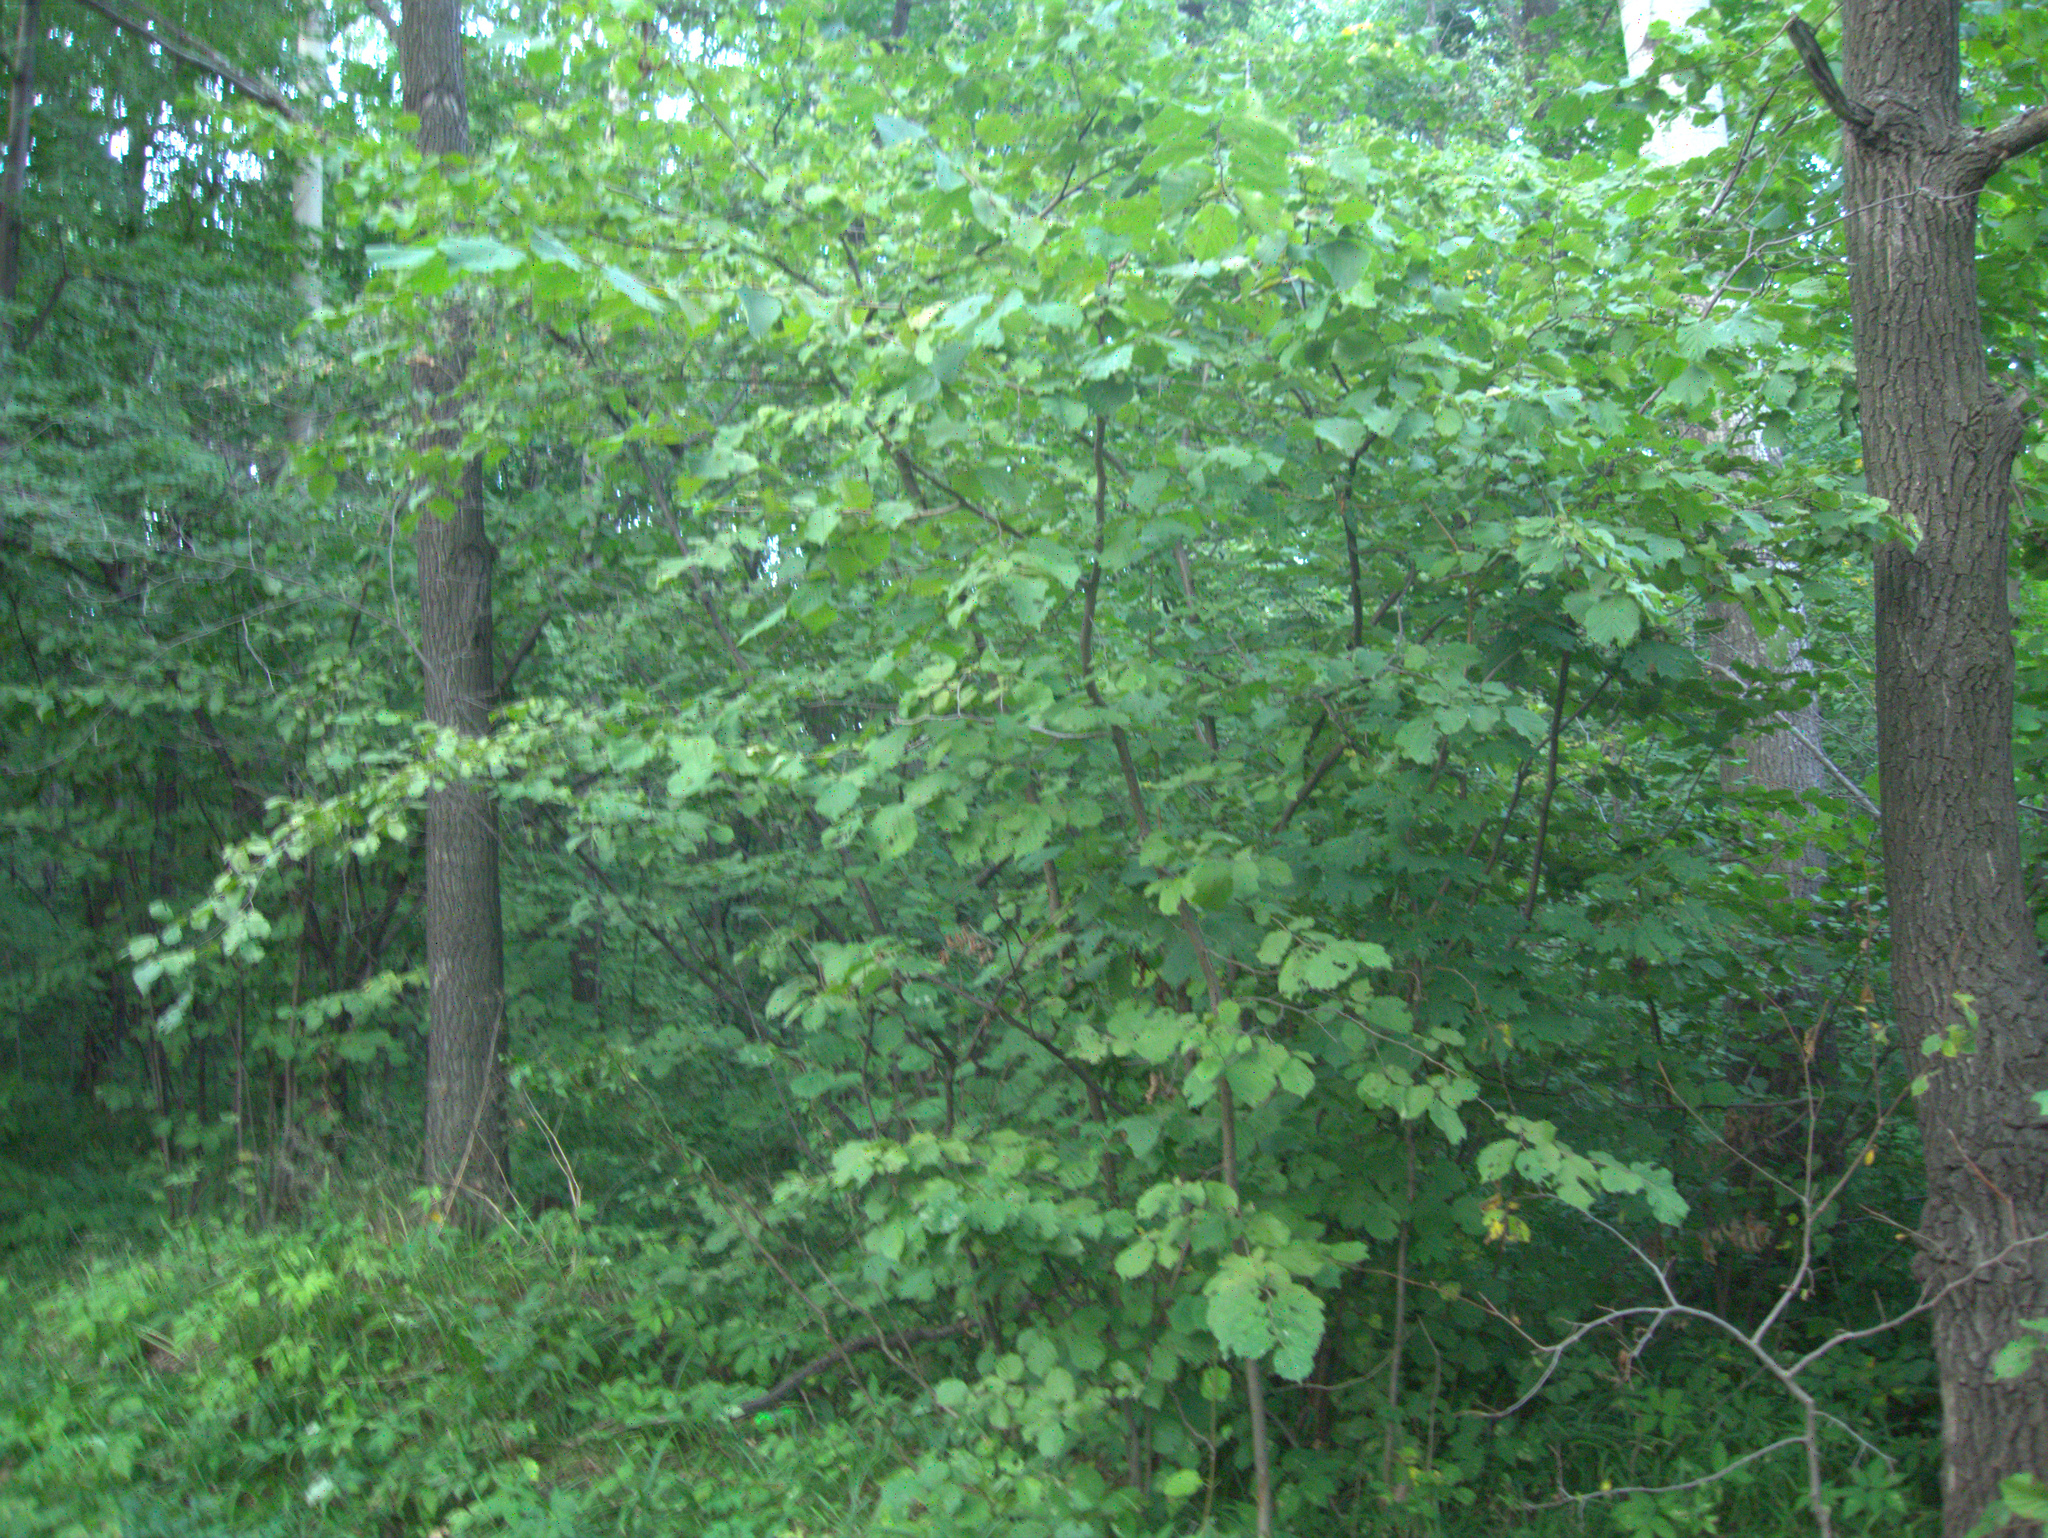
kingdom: Plantae
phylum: Tracheophyta
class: Magnoliopsida
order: Fagales
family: Betulaceae
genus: Corylus
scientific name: Corylus avellana
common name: European hazel
